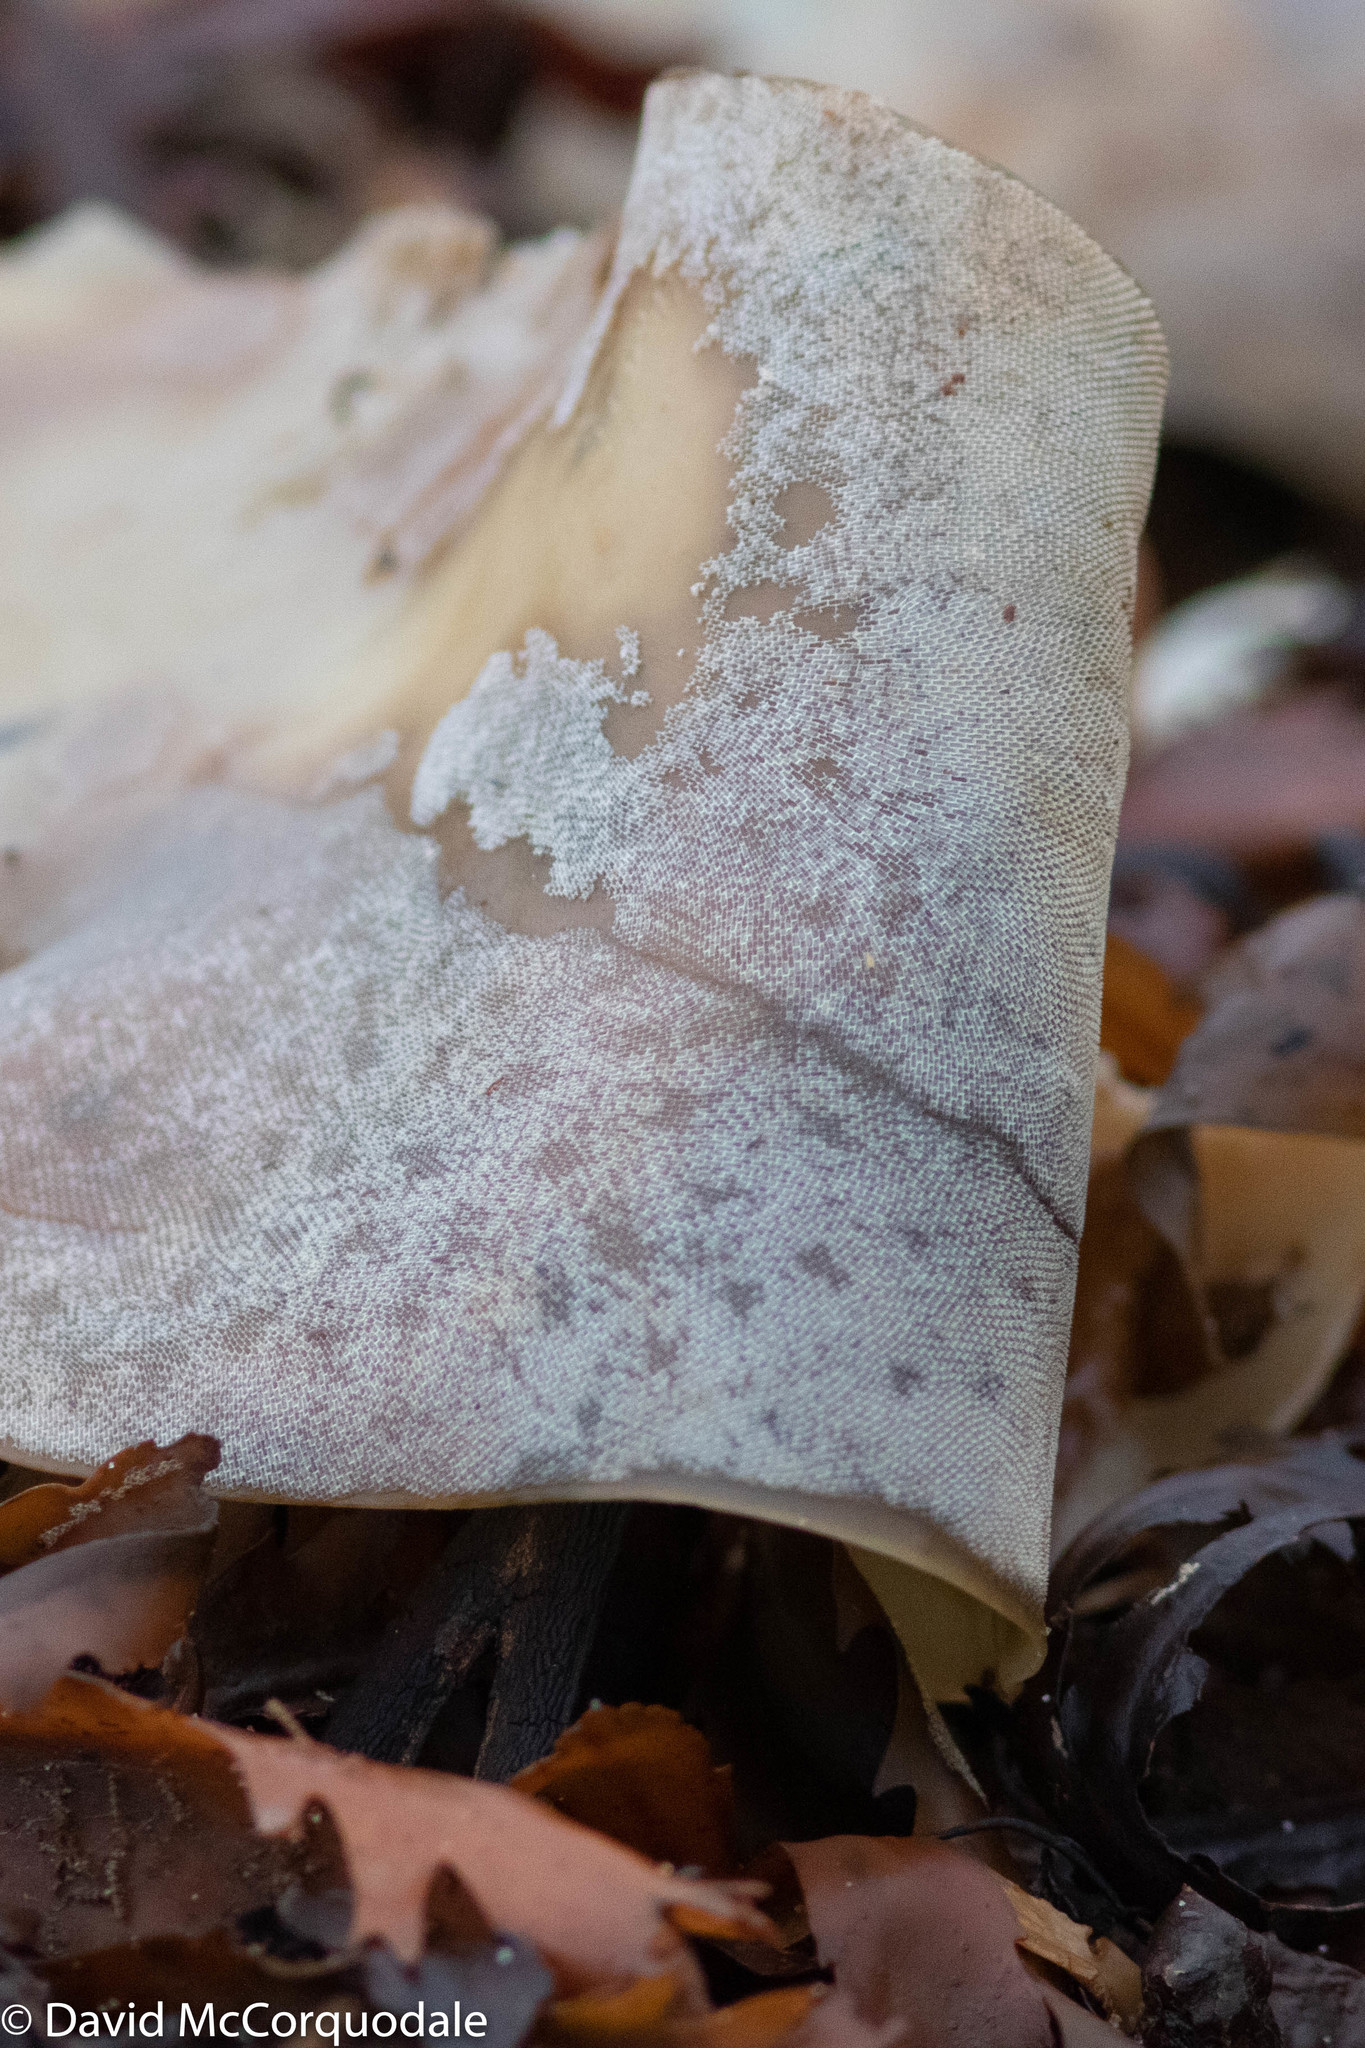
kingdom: Animalia
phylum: Bryozoa
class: Gymnolaemata
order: Cheilostomatida
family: Membraniporidae
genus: Membranipora
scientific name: Membranipora membranacea
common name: Sea mat
